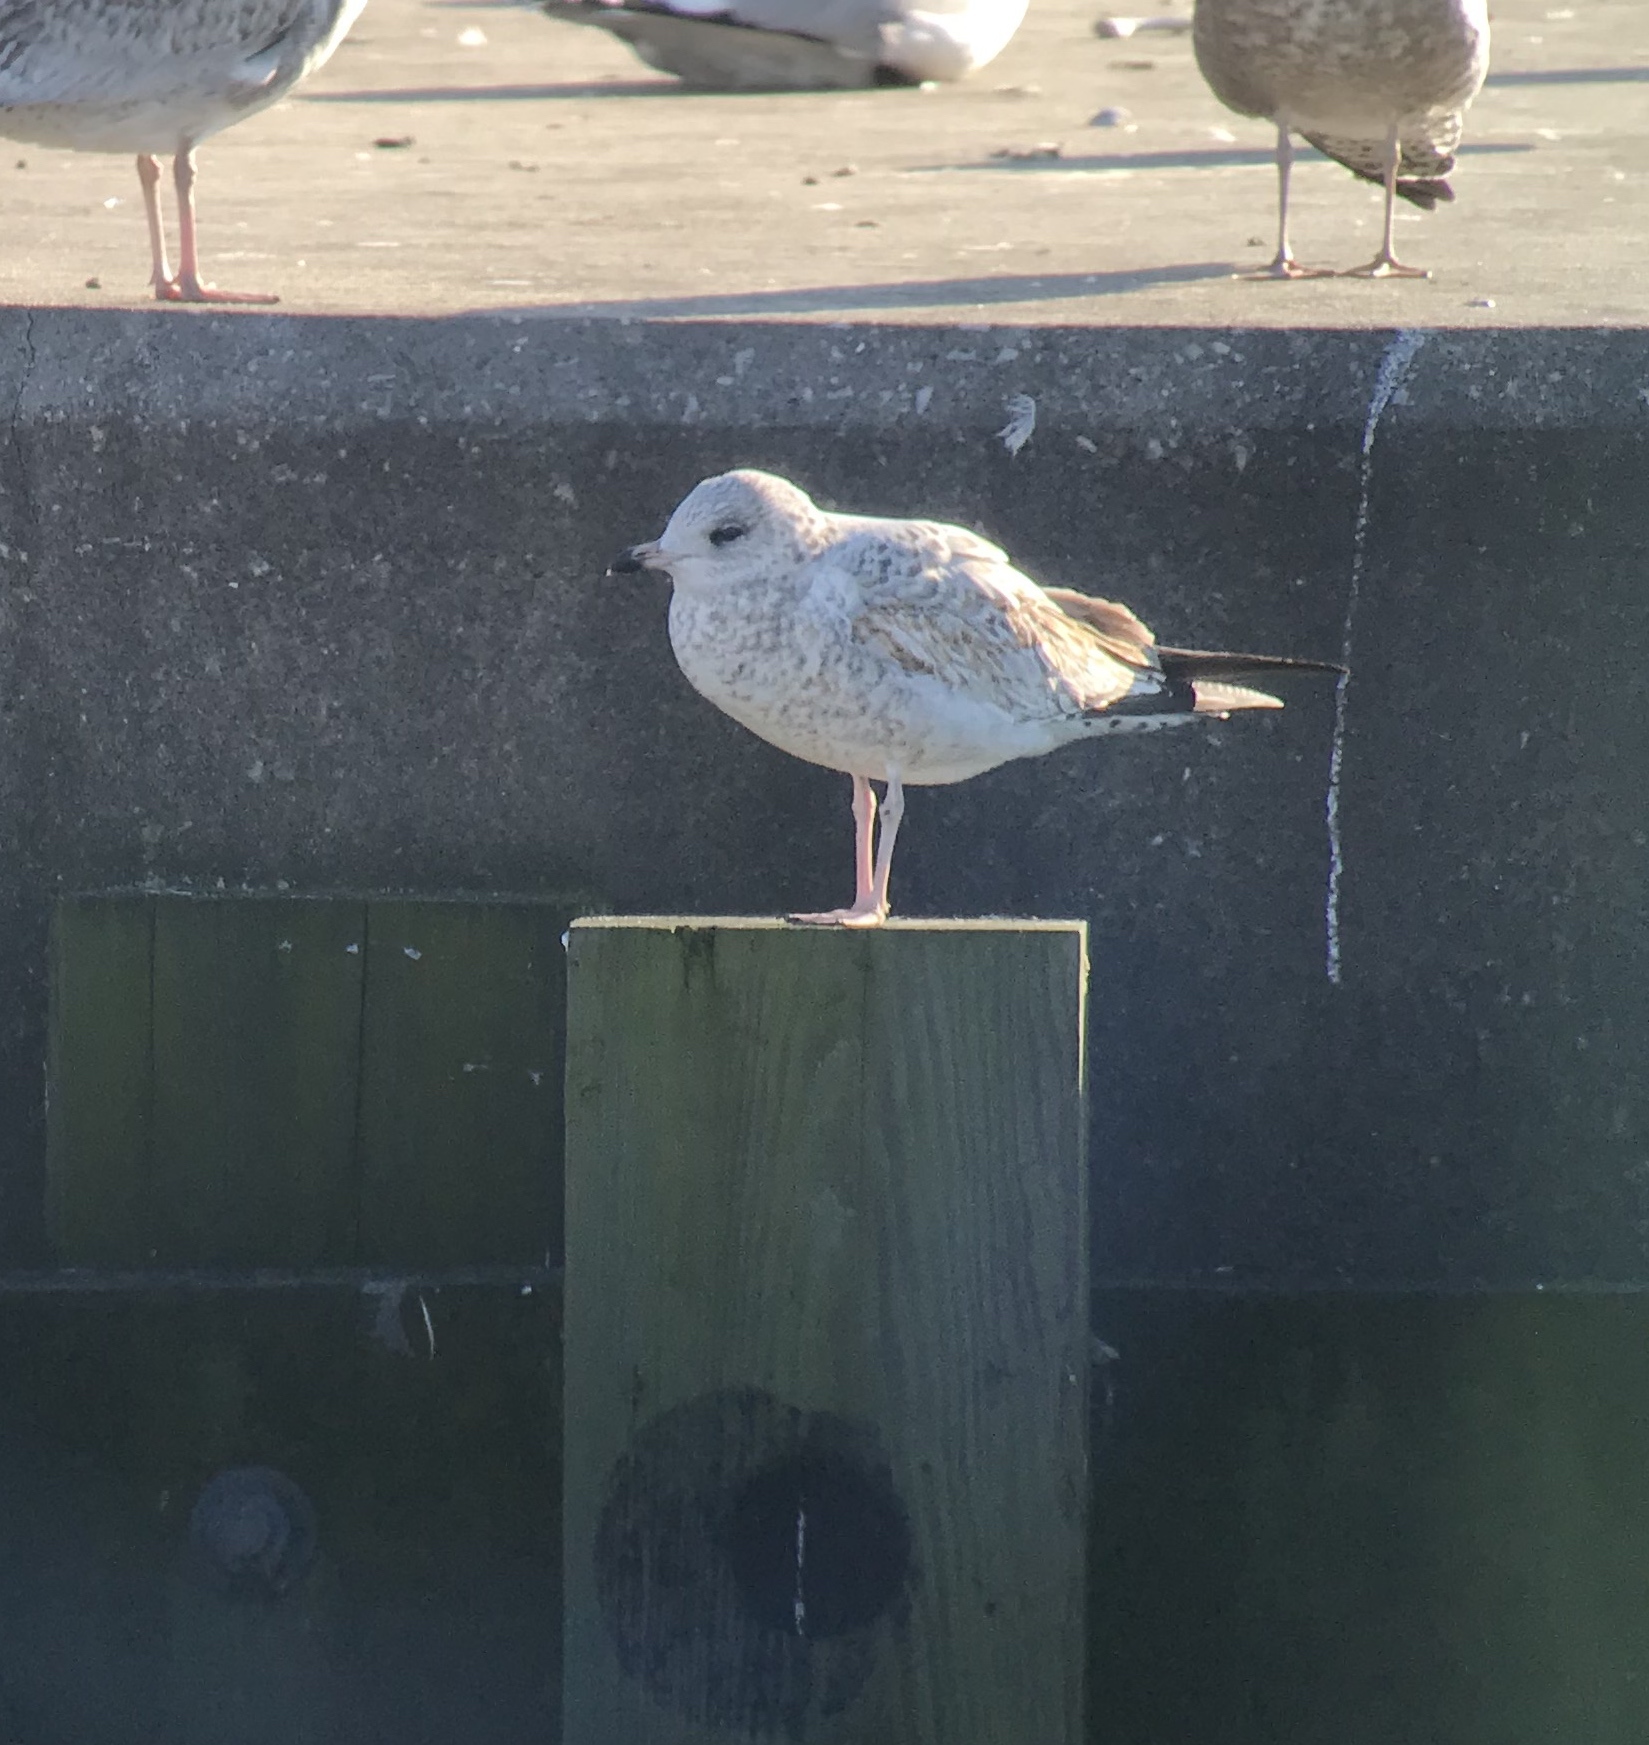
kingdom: Animalia
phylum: Chordata
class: Aves
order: Charadriiformes
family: Laridae
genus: Larus
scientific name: Larus delawarensis
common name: Ring-billed gull
